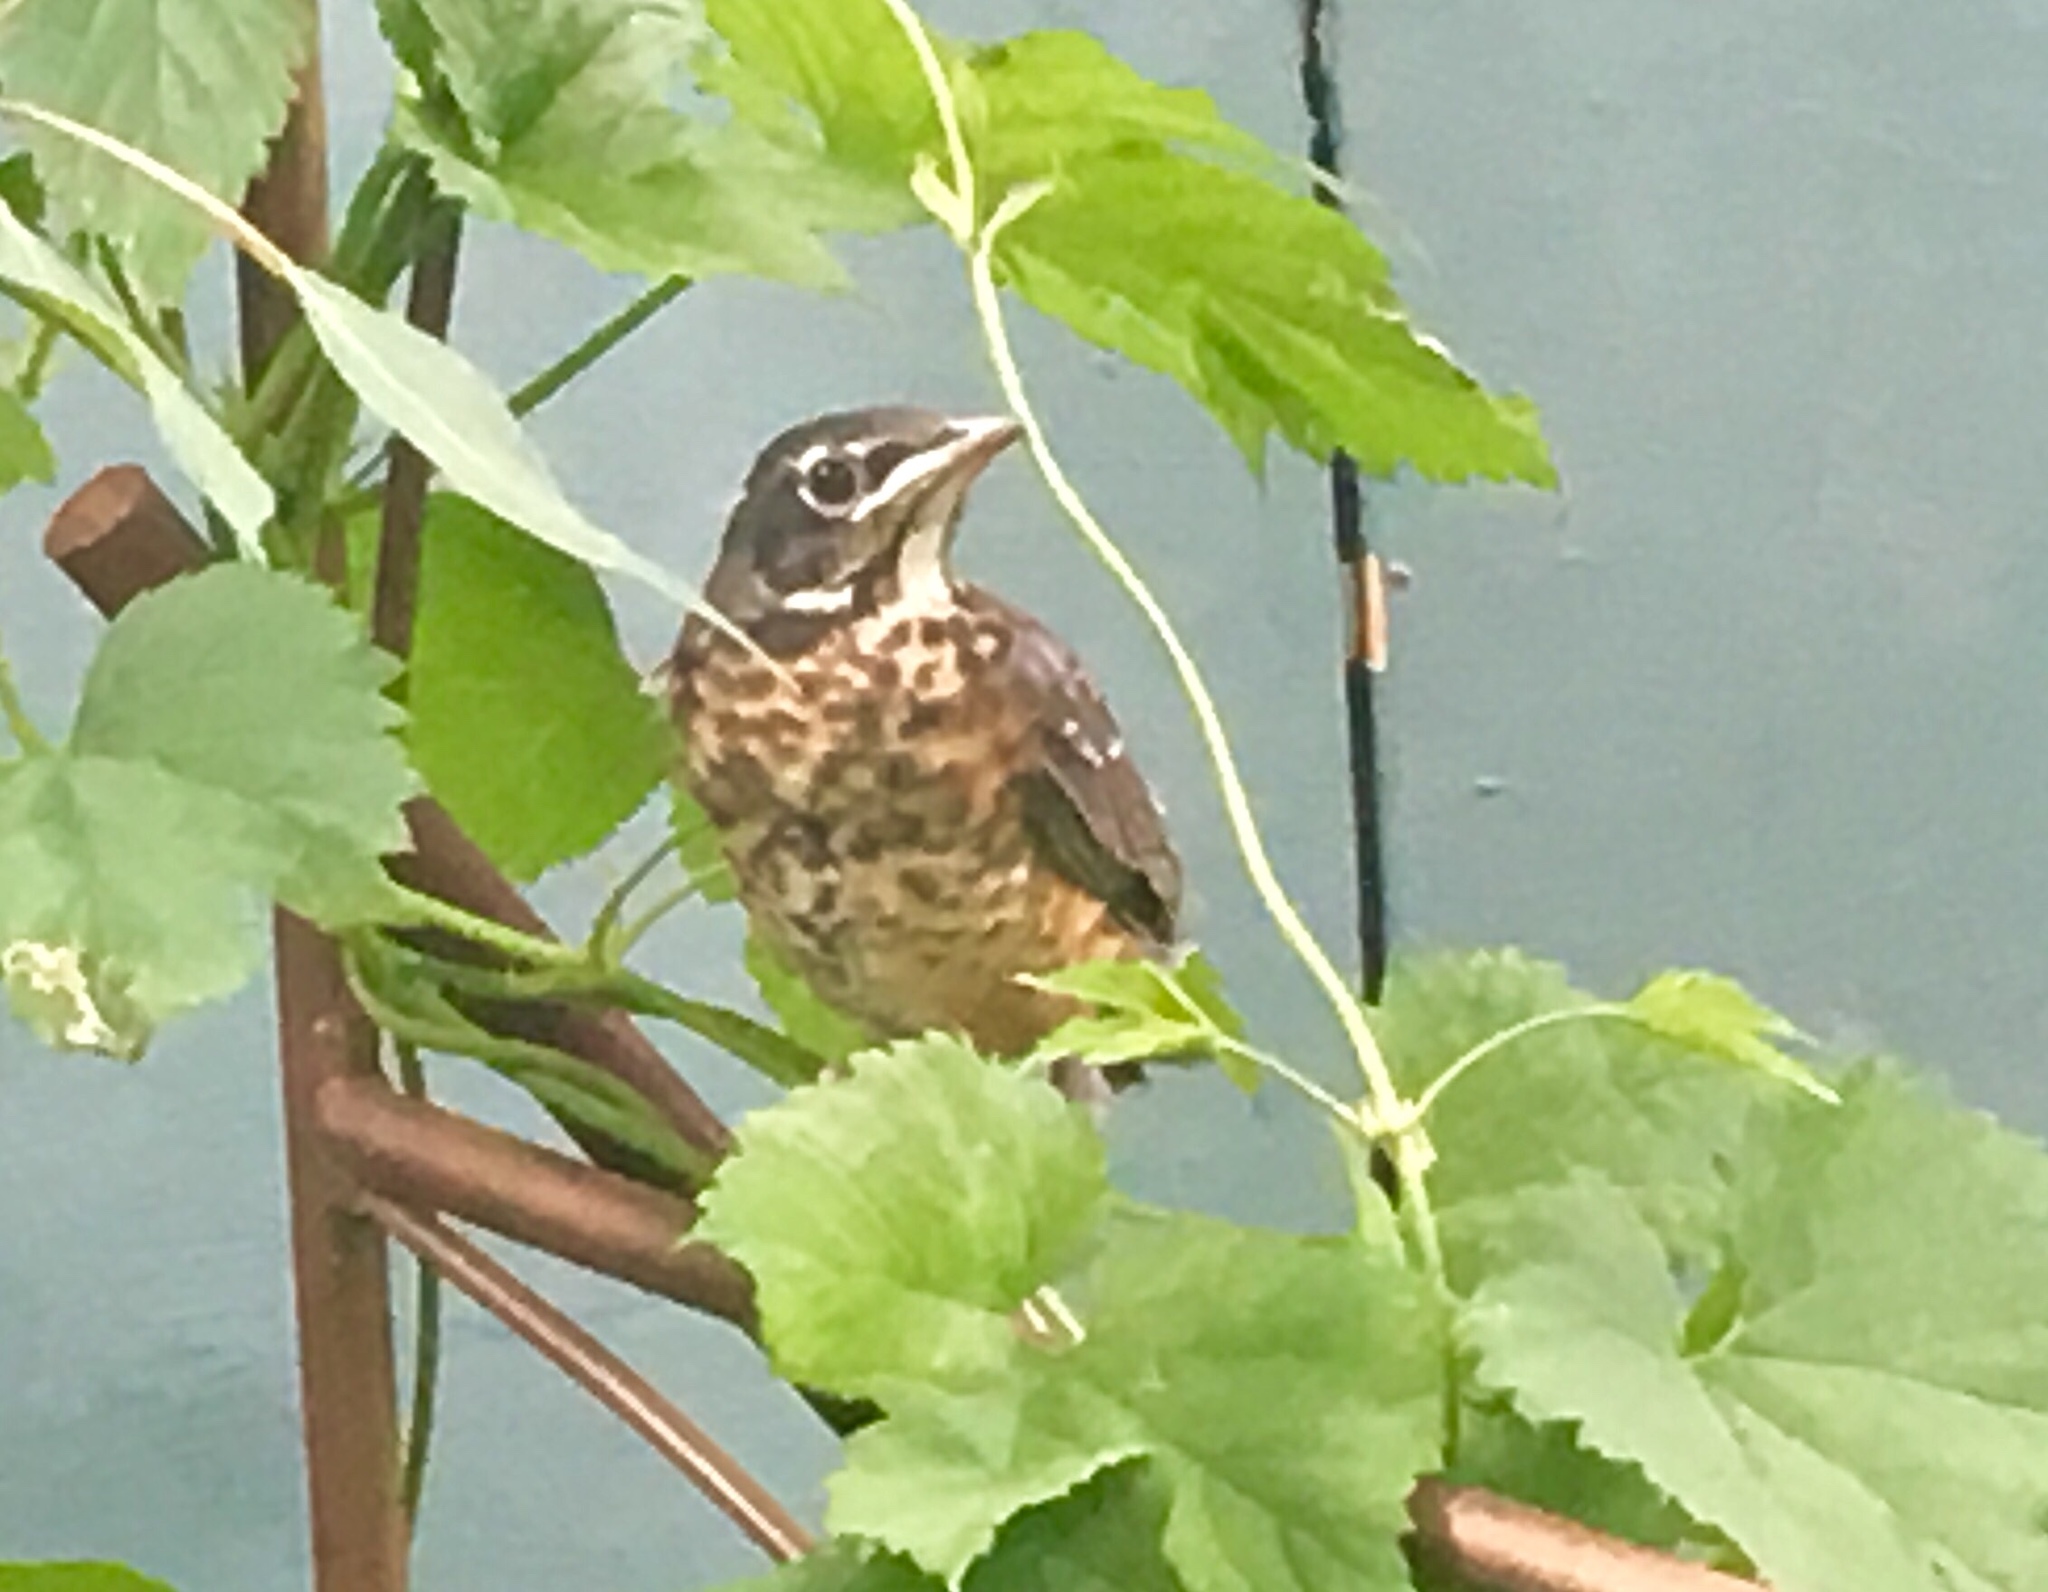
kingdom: Animalia
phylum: Chordata
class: Aves
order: Passeriformes
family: Turdidae
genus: Turdus
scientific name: Turdus migratorius
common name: American robin
